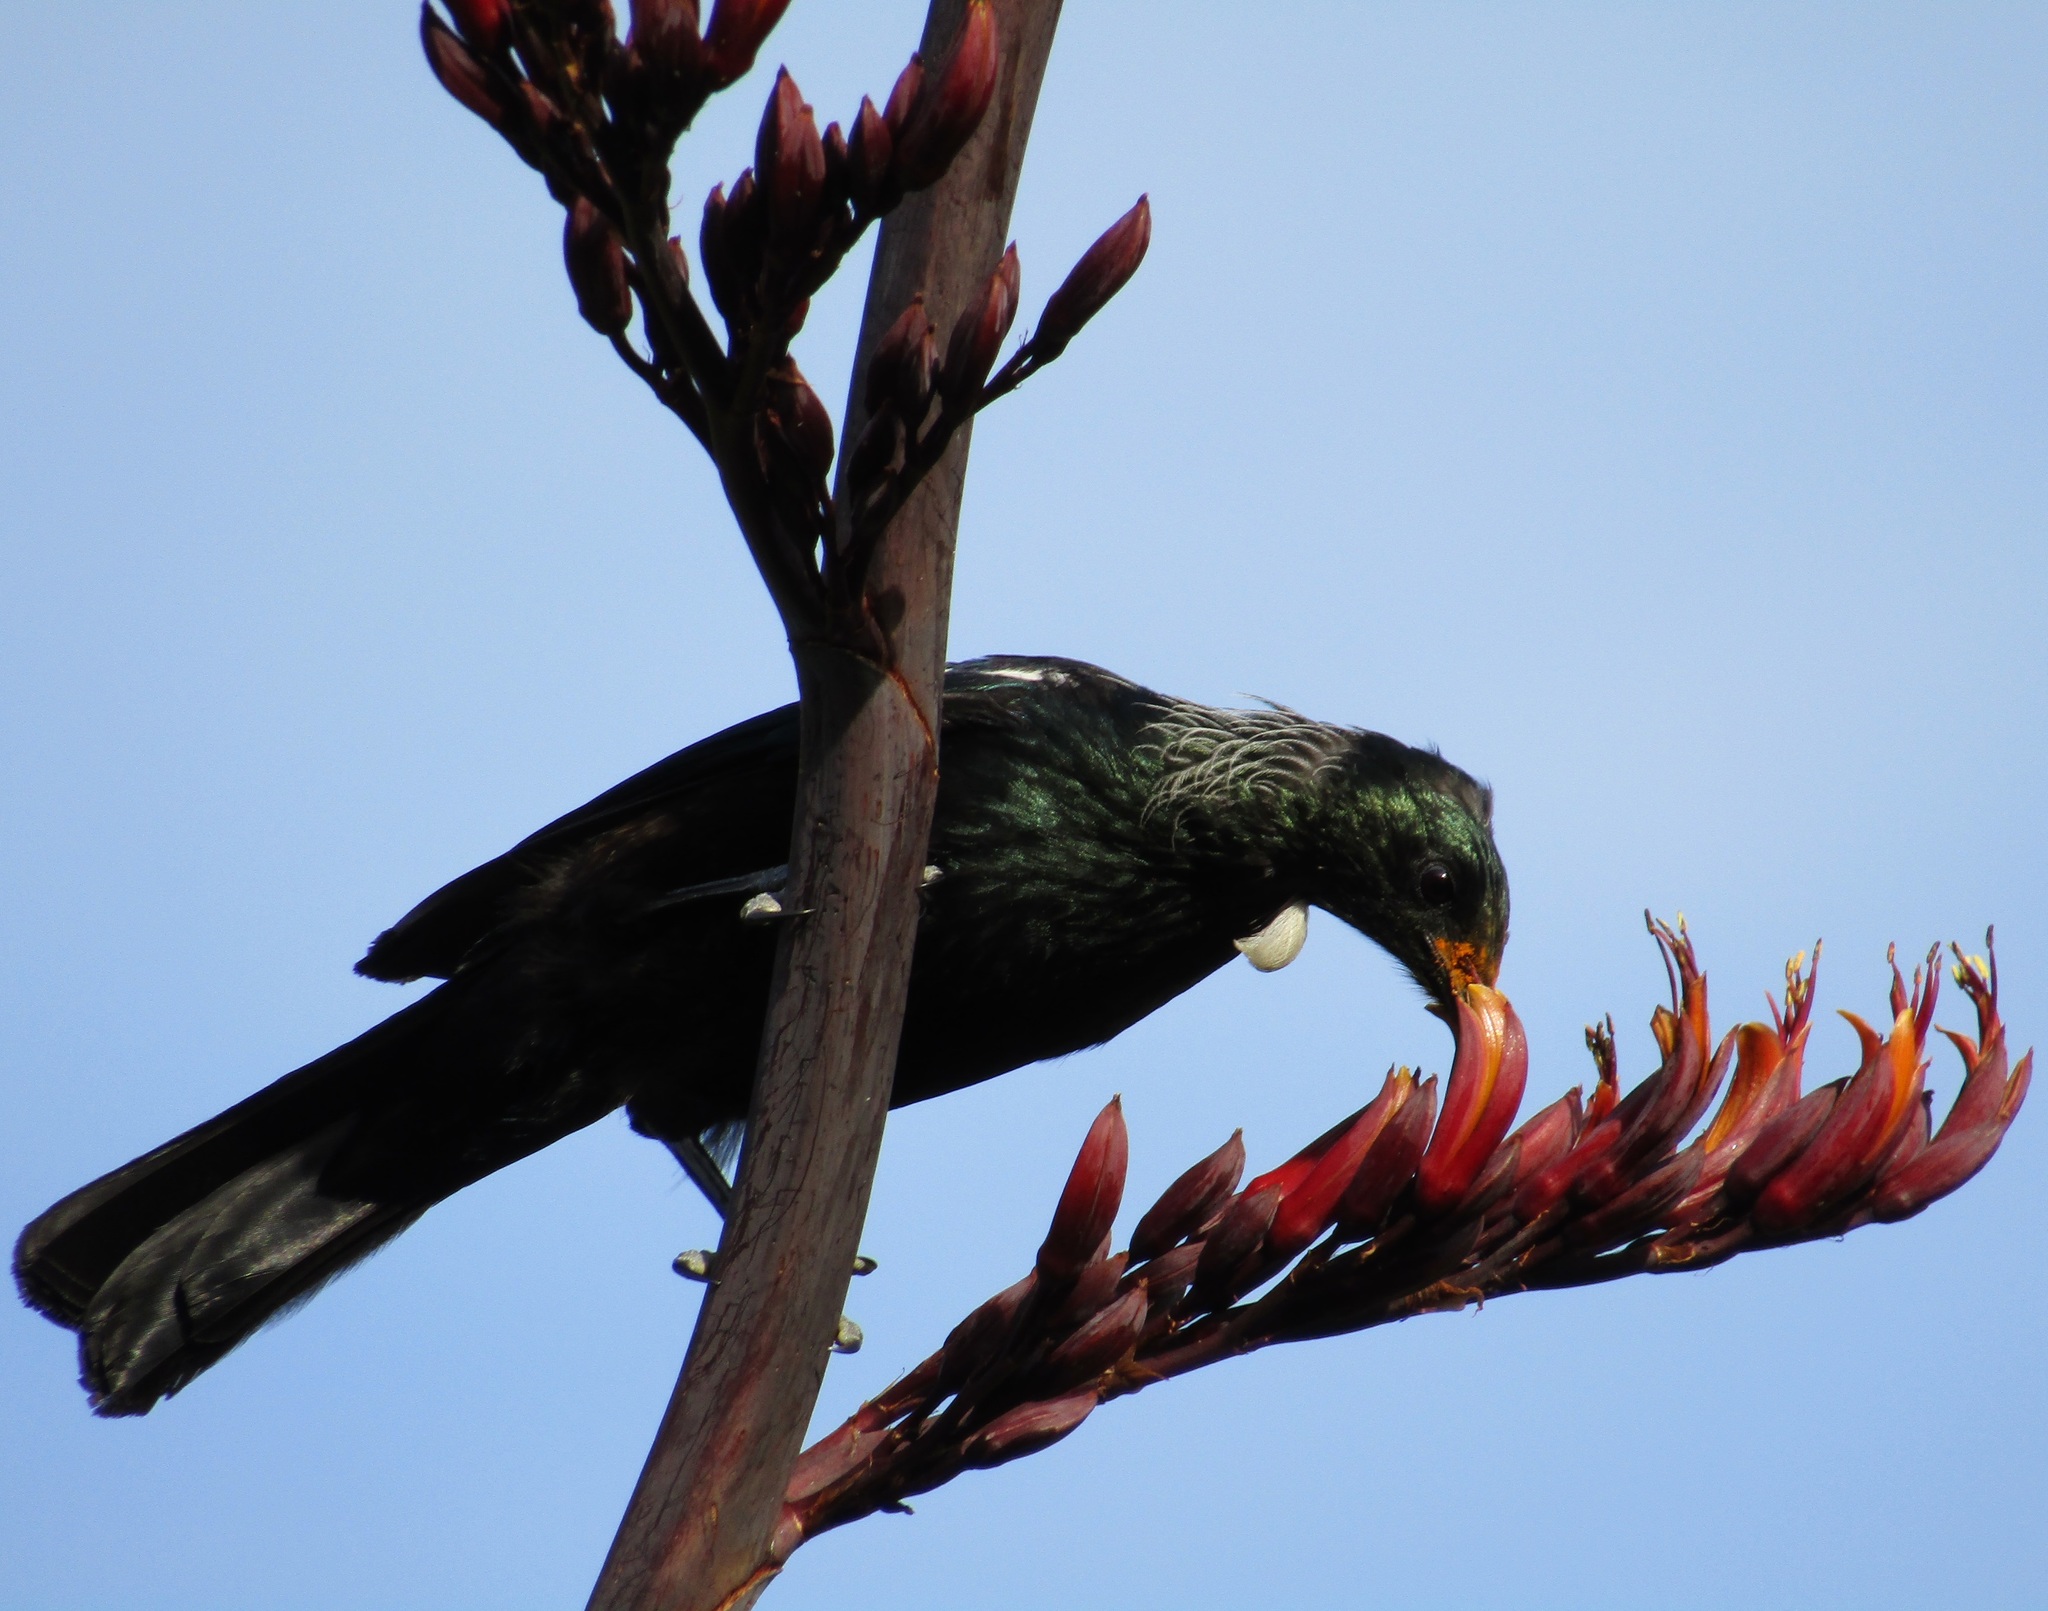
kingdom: Animalia
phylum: Chordata
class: Aves
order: Passeriformes
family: Meliphagidae
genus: Prosthemadera
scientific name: Prosthemadera novaeseelandiae
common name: Tui
